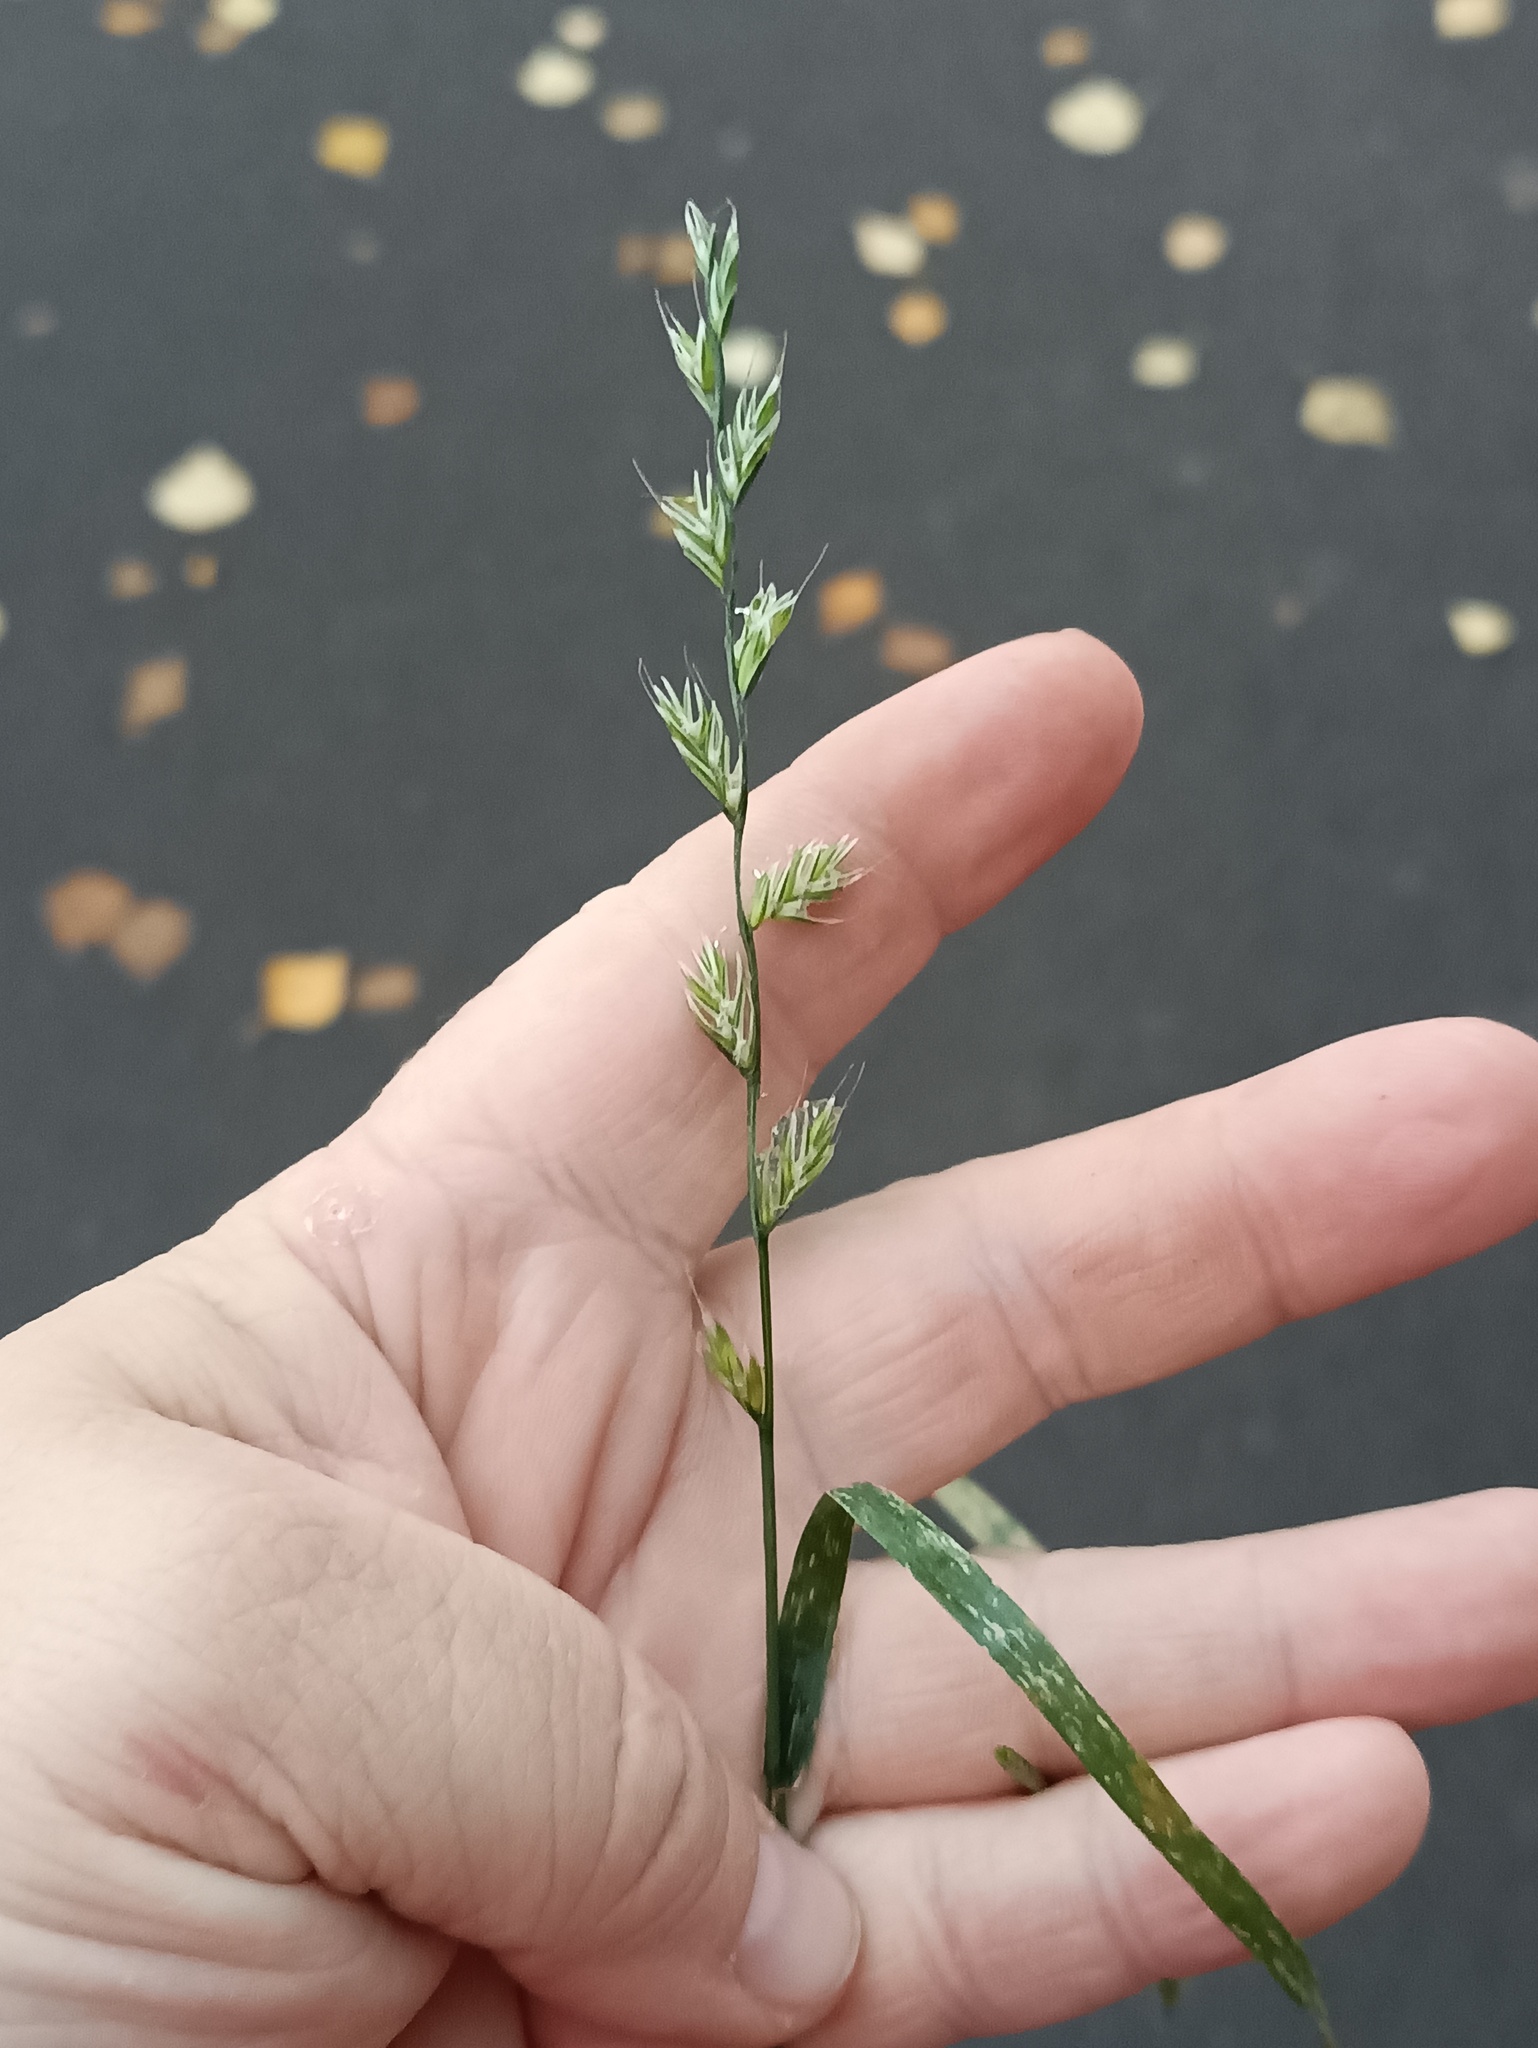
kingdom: Plantae
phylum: Tracheophyta
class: Liliopsida
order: Poales
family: Poaceae
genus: Lolium
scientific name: Lolium multiflorum
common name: Annual ryegrass
